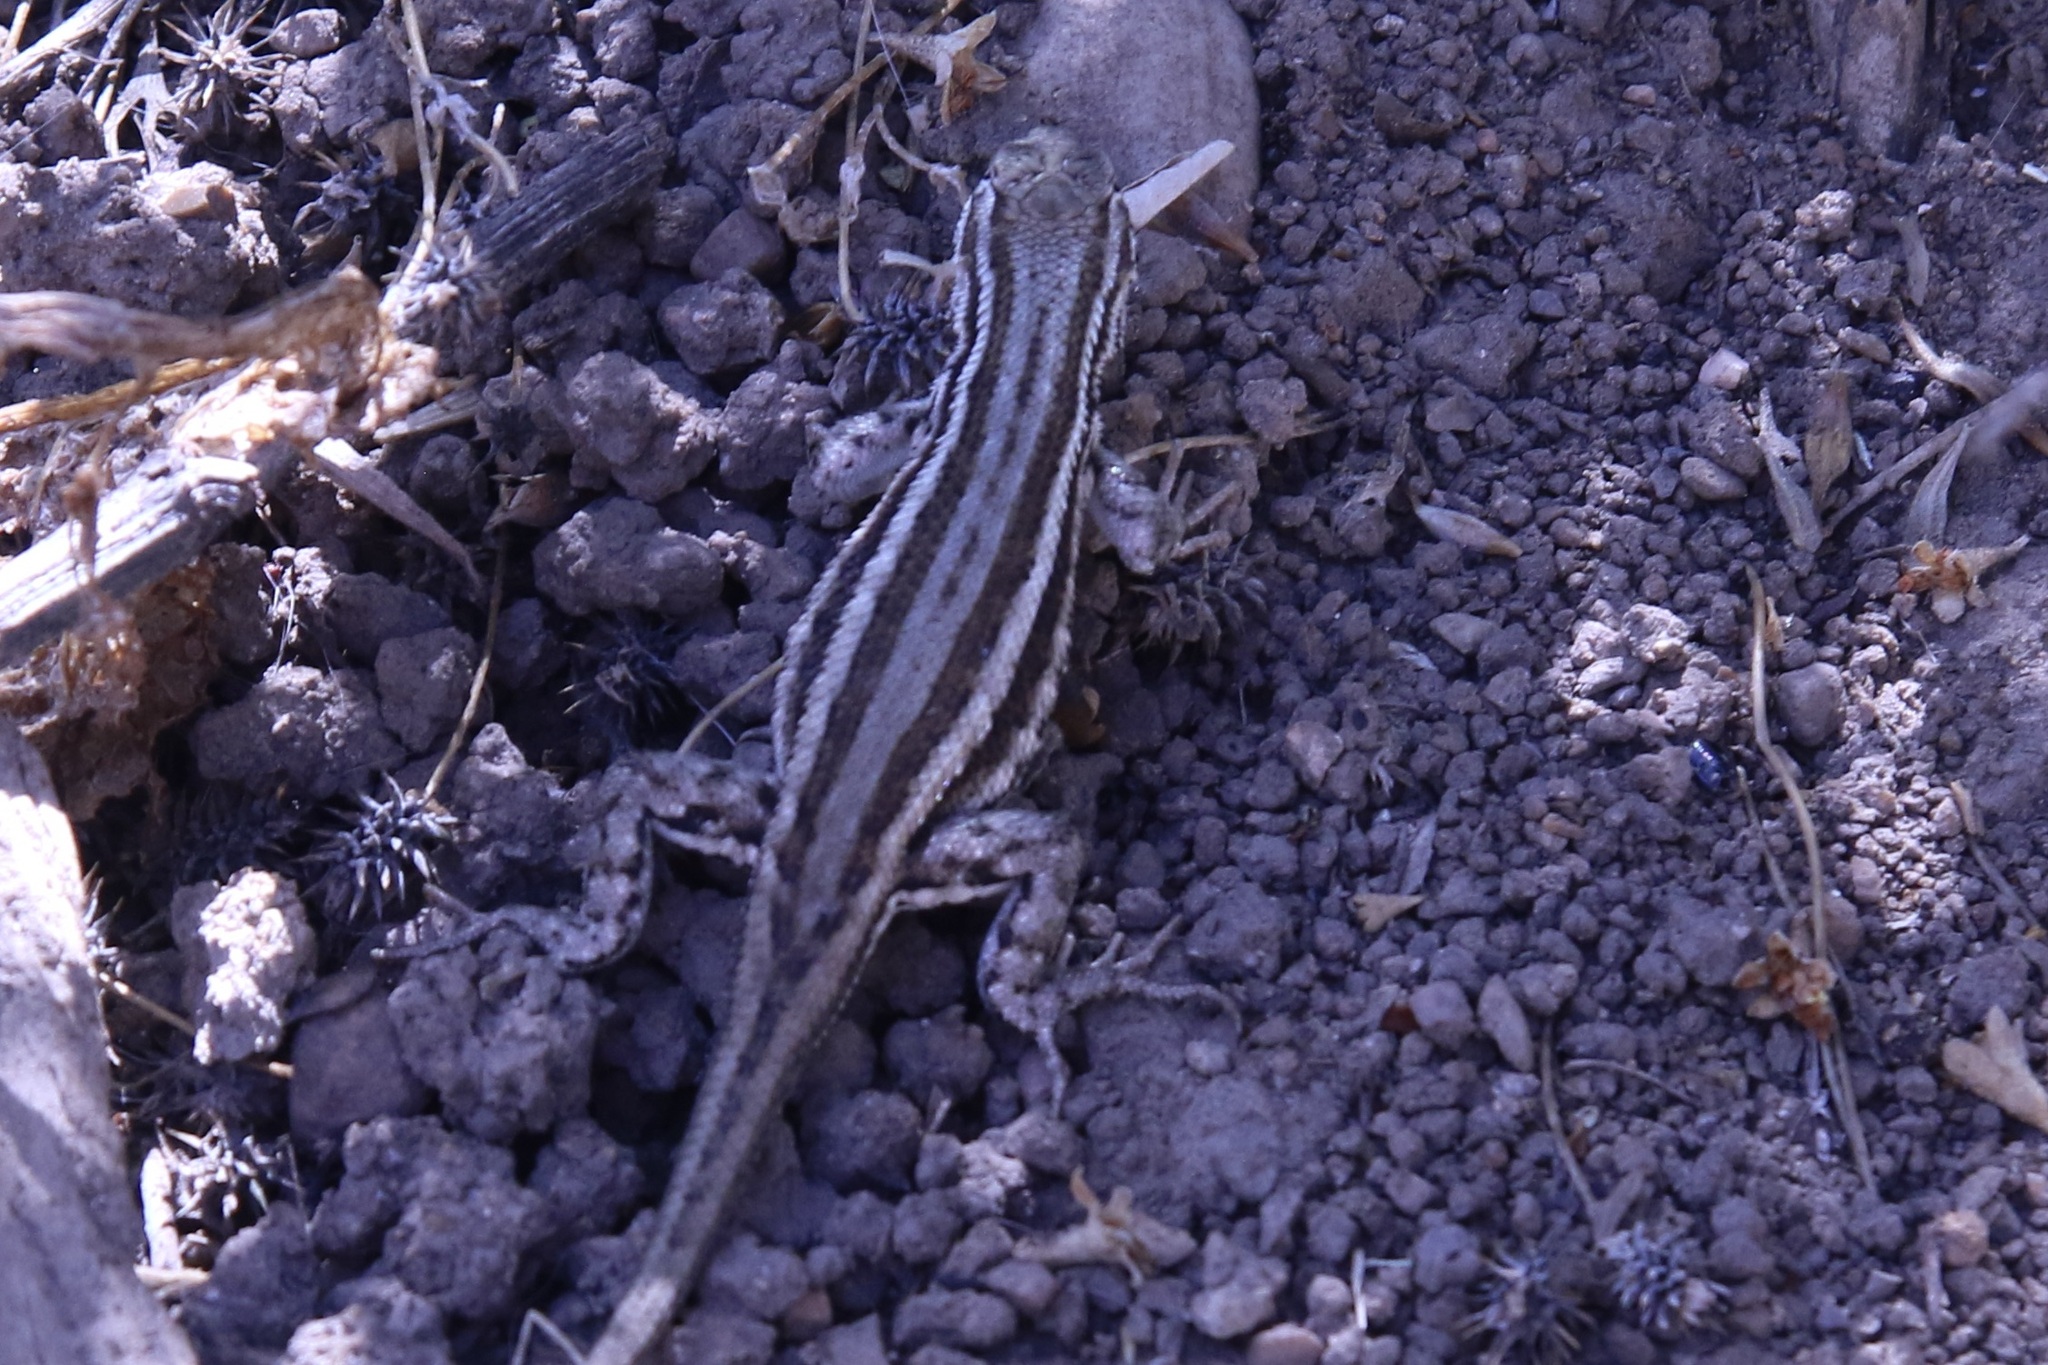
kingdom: Animalia
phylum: Chordata
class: Squamata
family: Phrynosomatidae
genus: Sceloporus
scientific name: Sceloporus graciosus
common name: Sagebrush lizard
